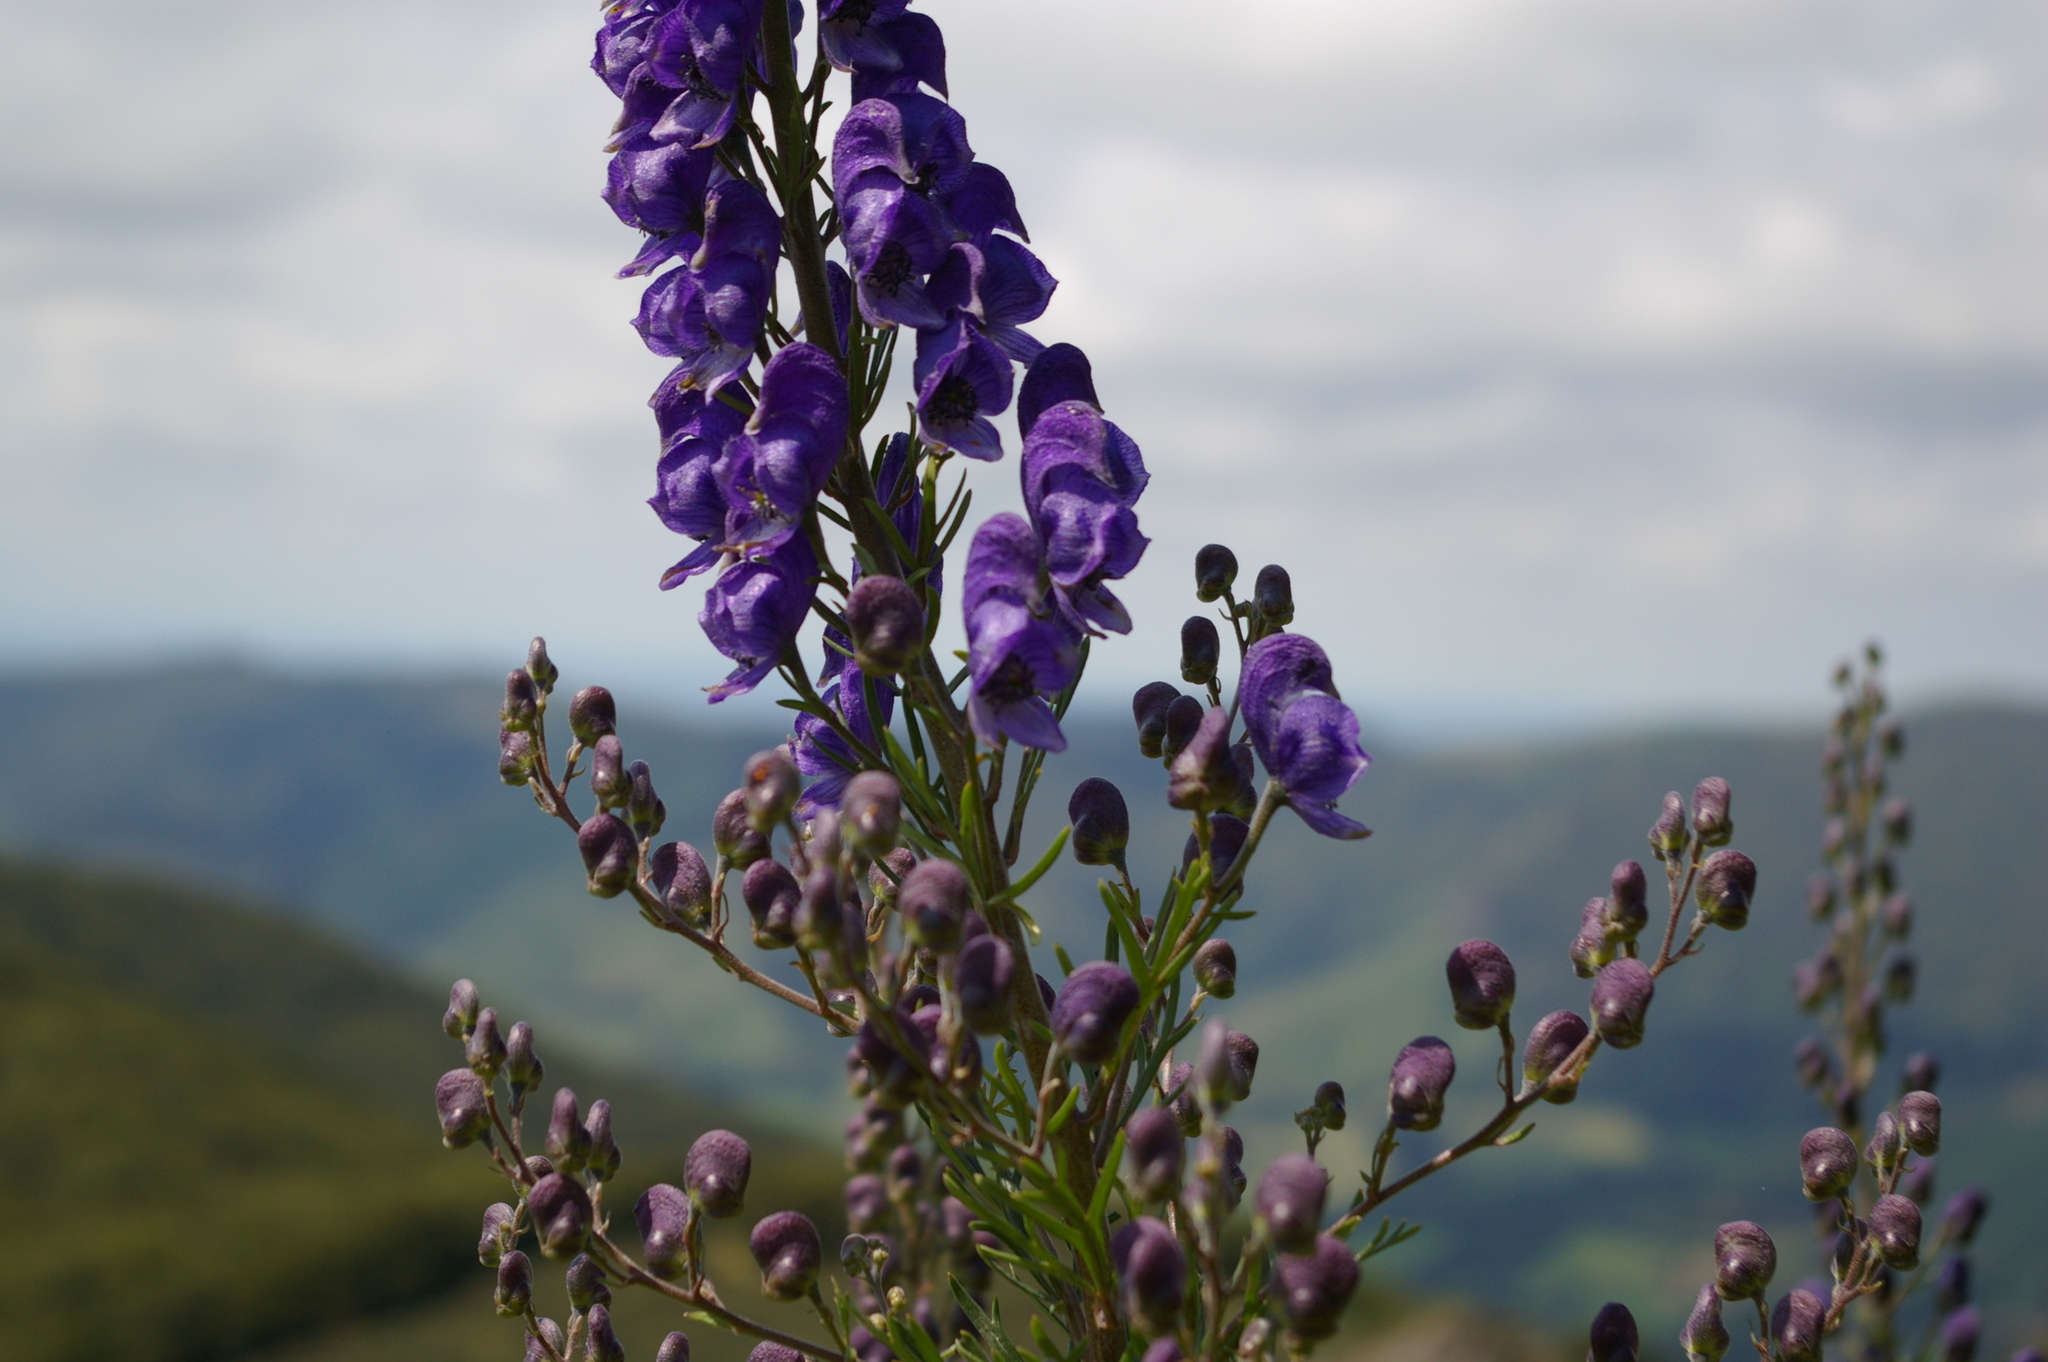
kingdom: Plantae
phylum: Tracheophyta
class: Magnoliopsida
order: Ranunculales
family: Ranunculaceae
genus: Aconitum
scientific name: Aconitum napellus
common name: Garden monkshood
